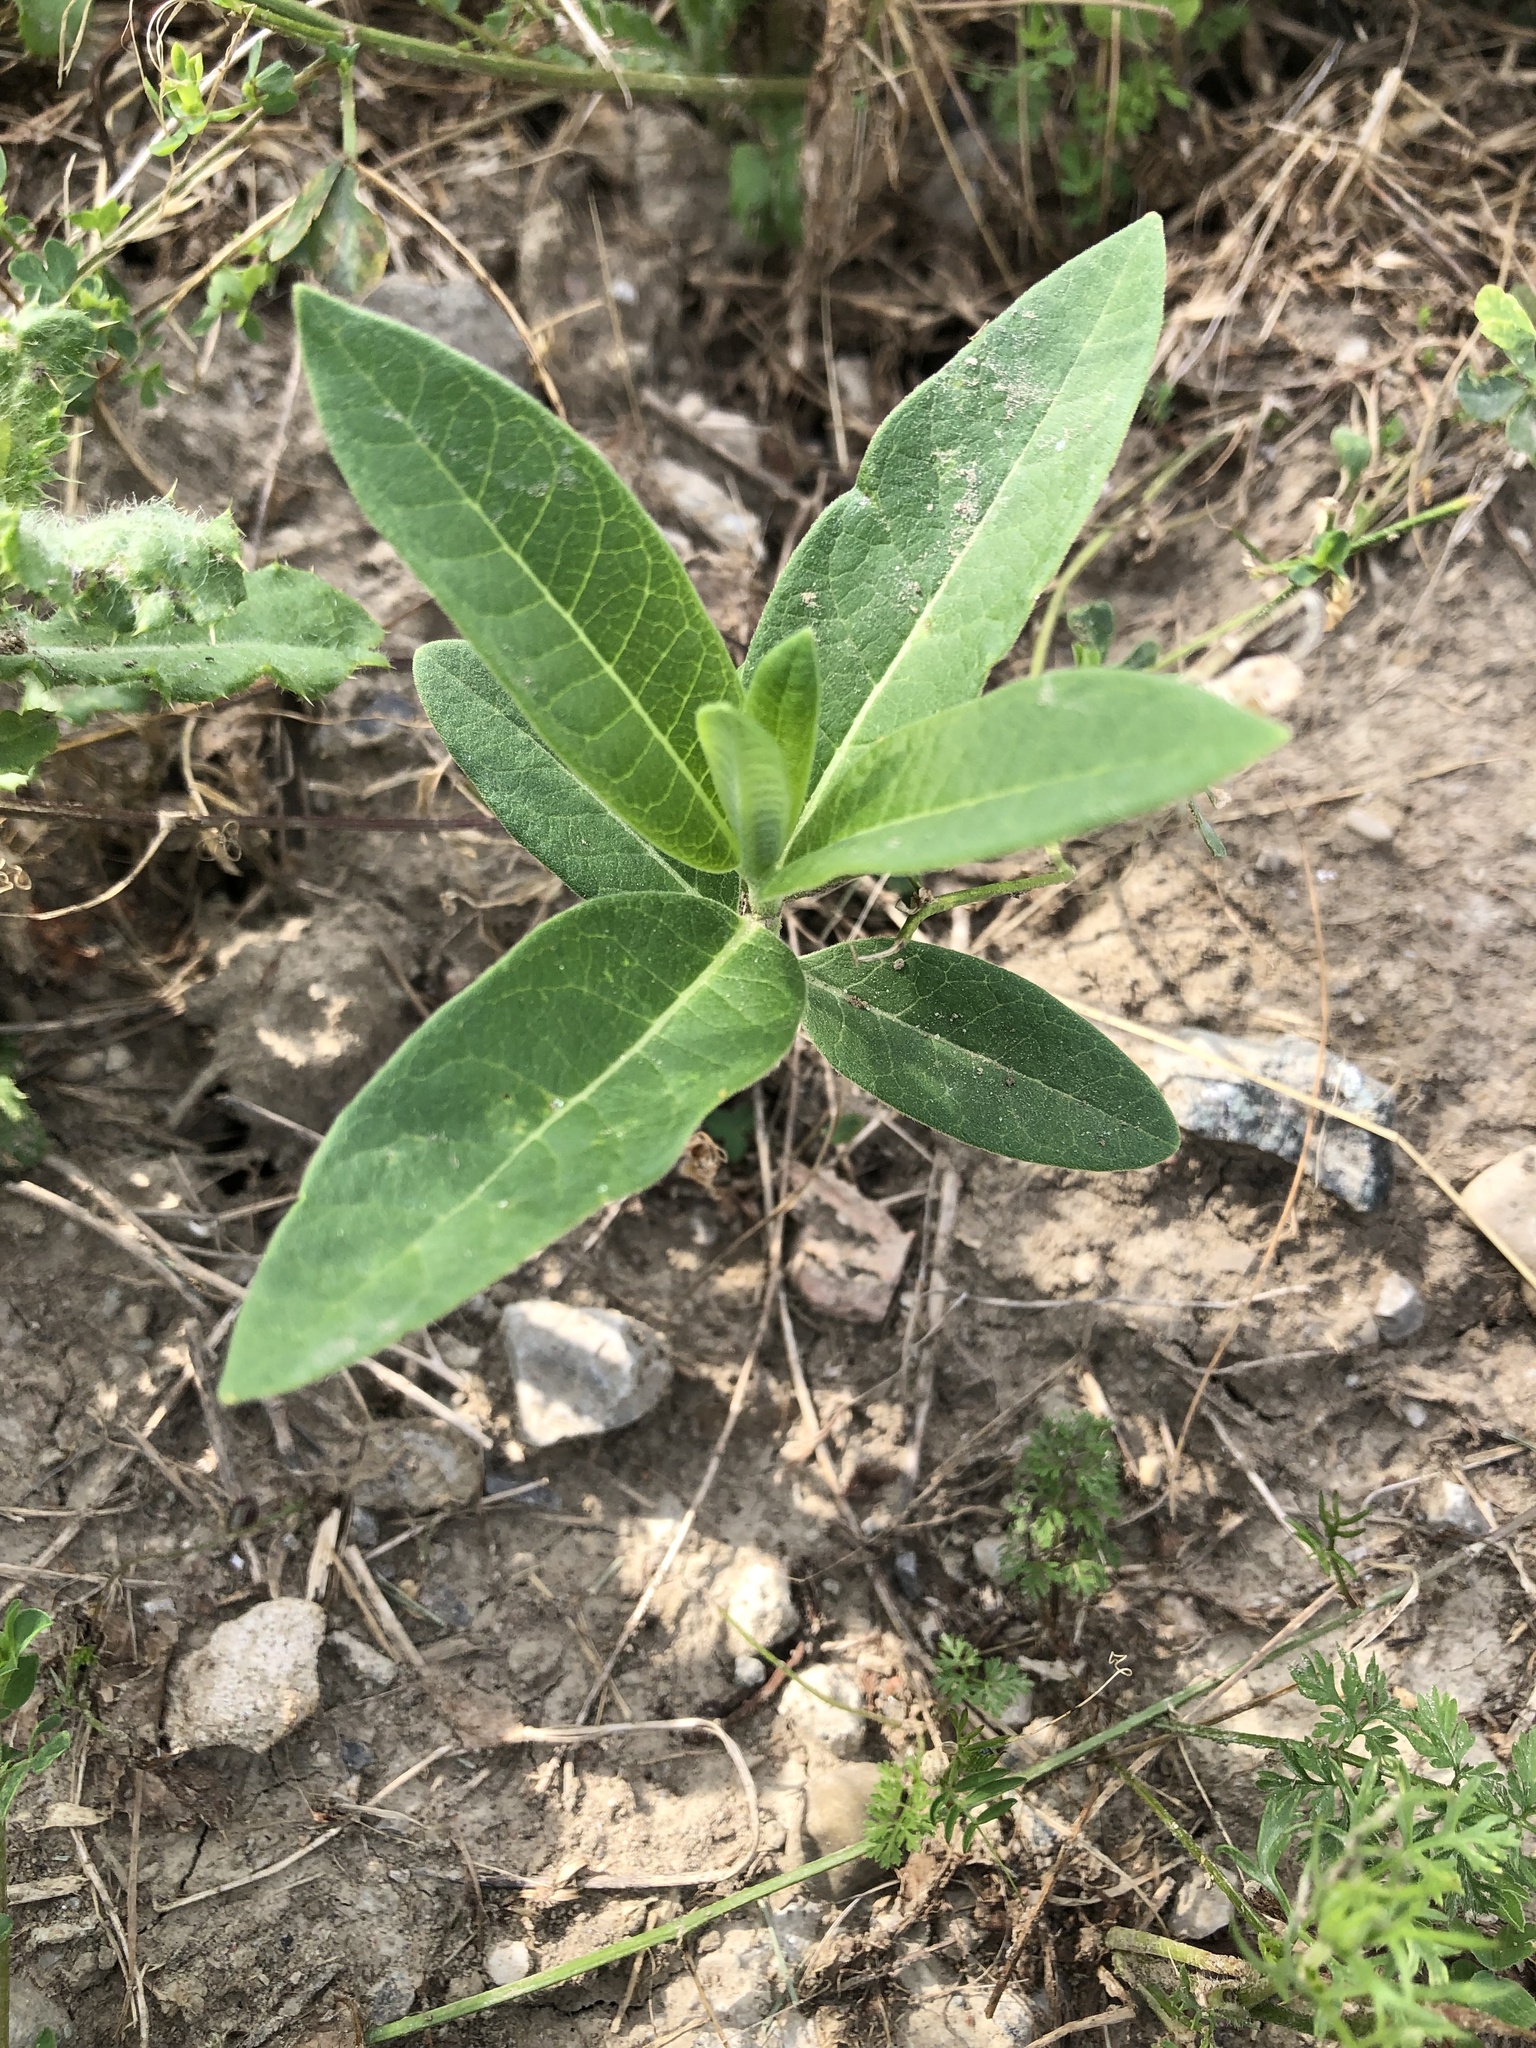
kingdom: Plantae
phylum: Tracheophyta
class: Magnoliopsida
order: Gentianales
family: Apocynaceae
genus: Asclepias
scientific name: Asclepias syriaca
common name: Common milkweed
